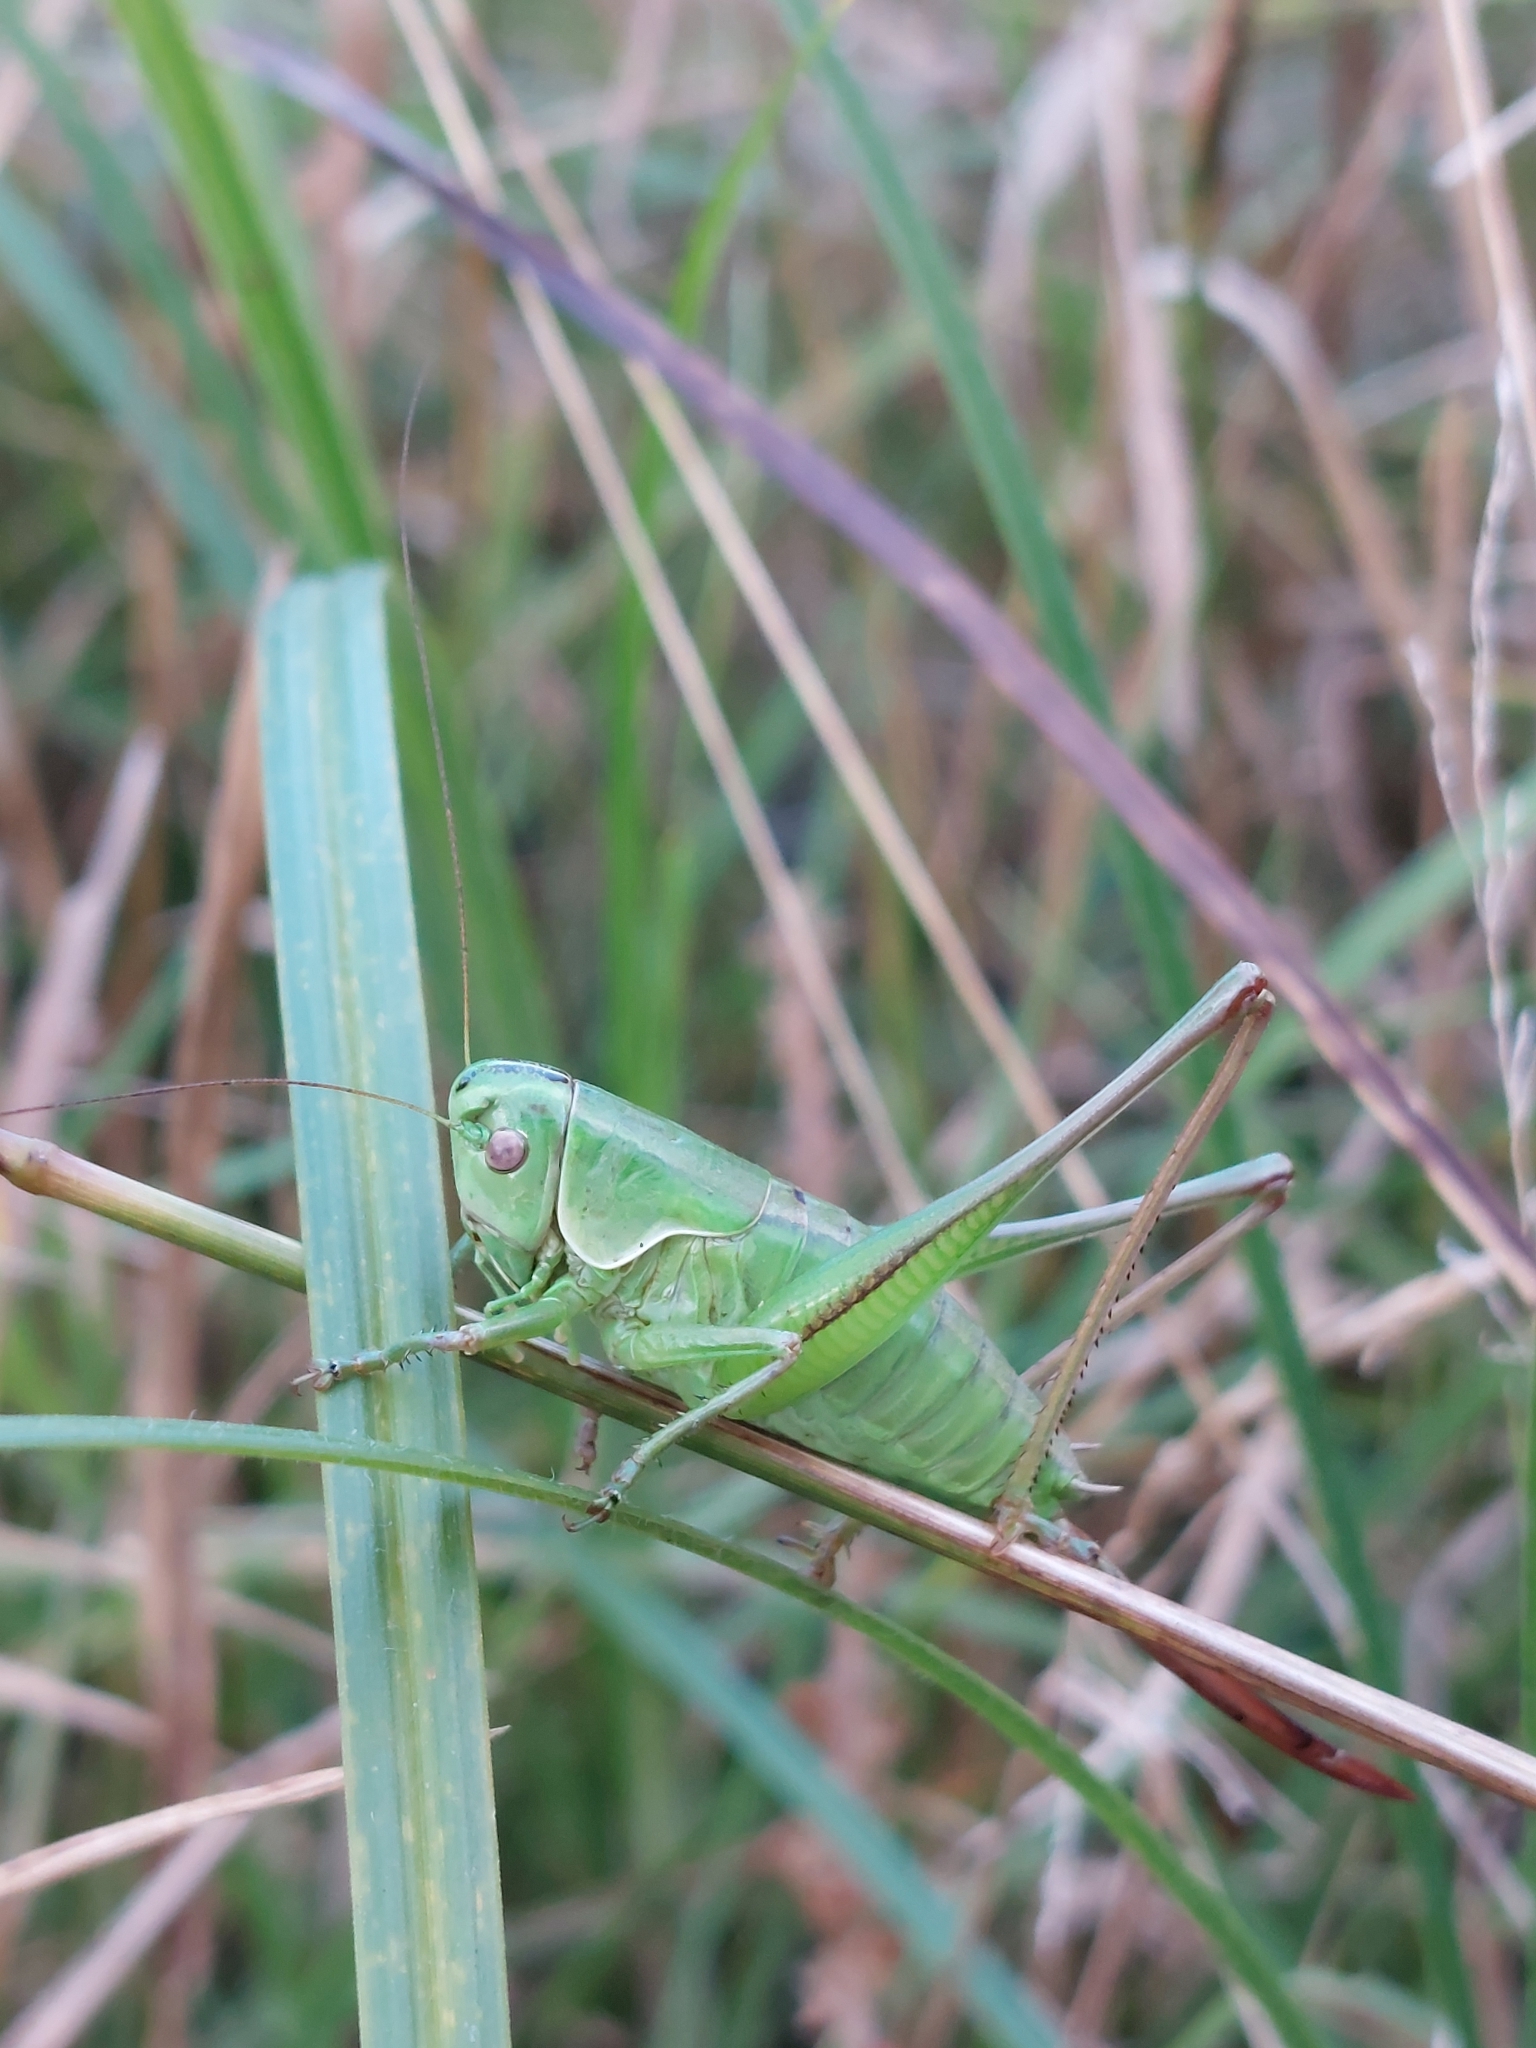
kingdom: Animalia
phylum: Arthropoda
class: Insecta
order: Orthoptera
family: Tettigoniidae
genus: Pholidoptera
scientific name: Pholidoptera frivaldszkyi
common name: Green dark bush-cricket
